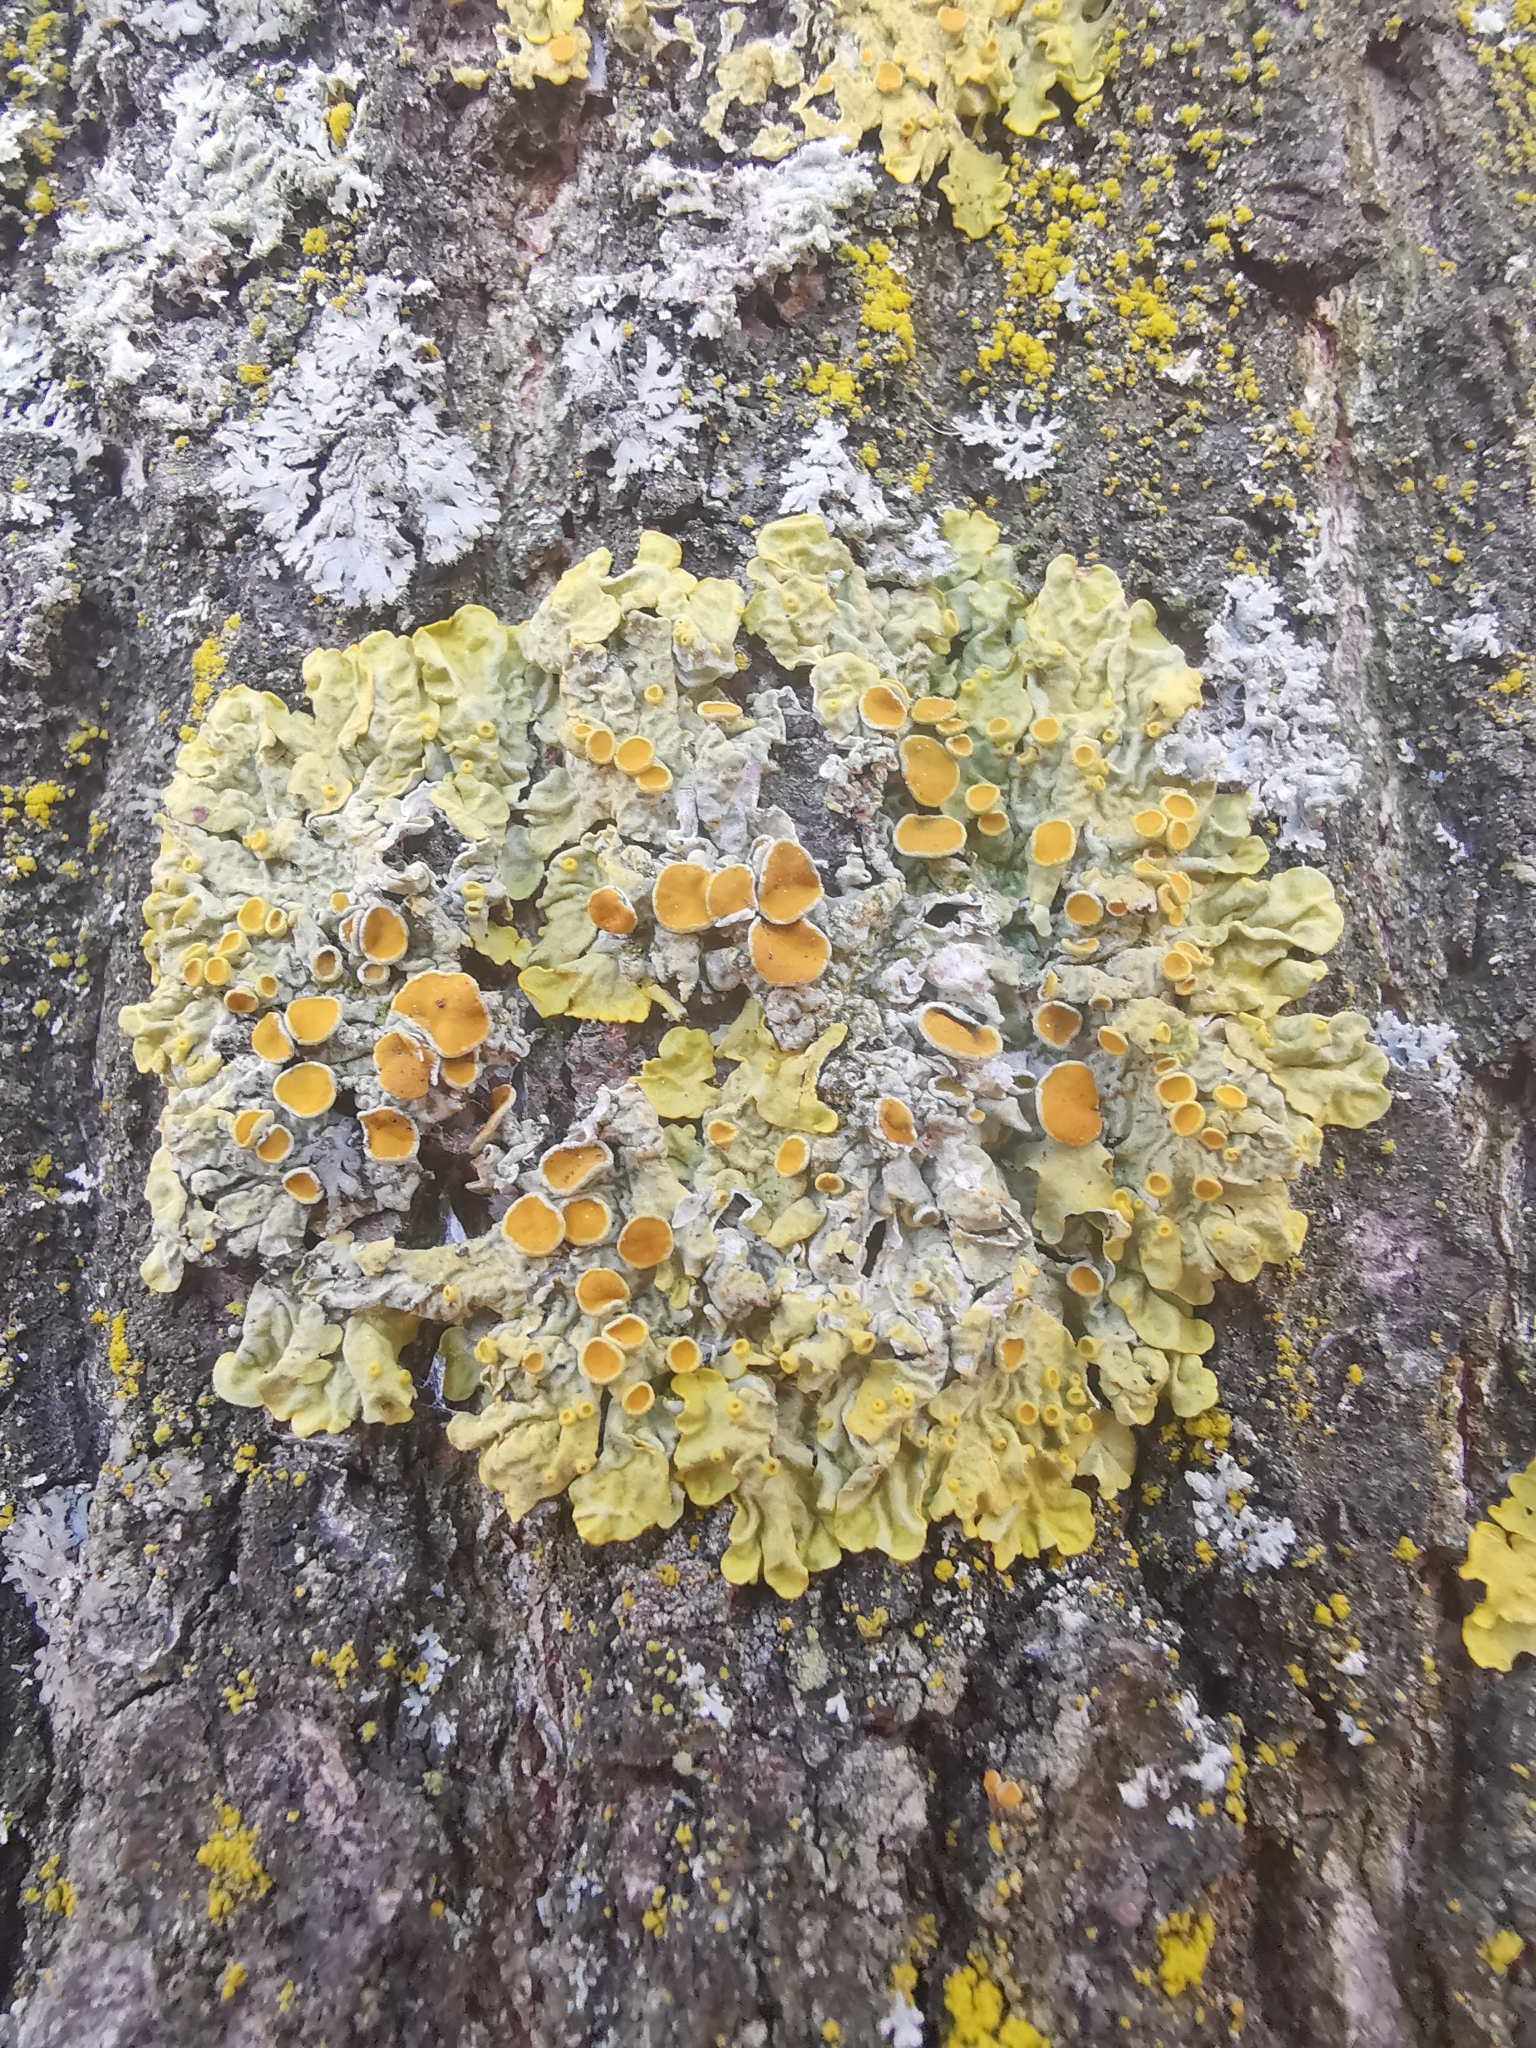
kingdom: Fungi
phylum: Ascomycota
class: Lecanoromycetes
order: Teloschistales
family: Teloschistaceae
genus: Xanthoria
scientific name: Xanthoria parietina
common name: Common orange lichen
